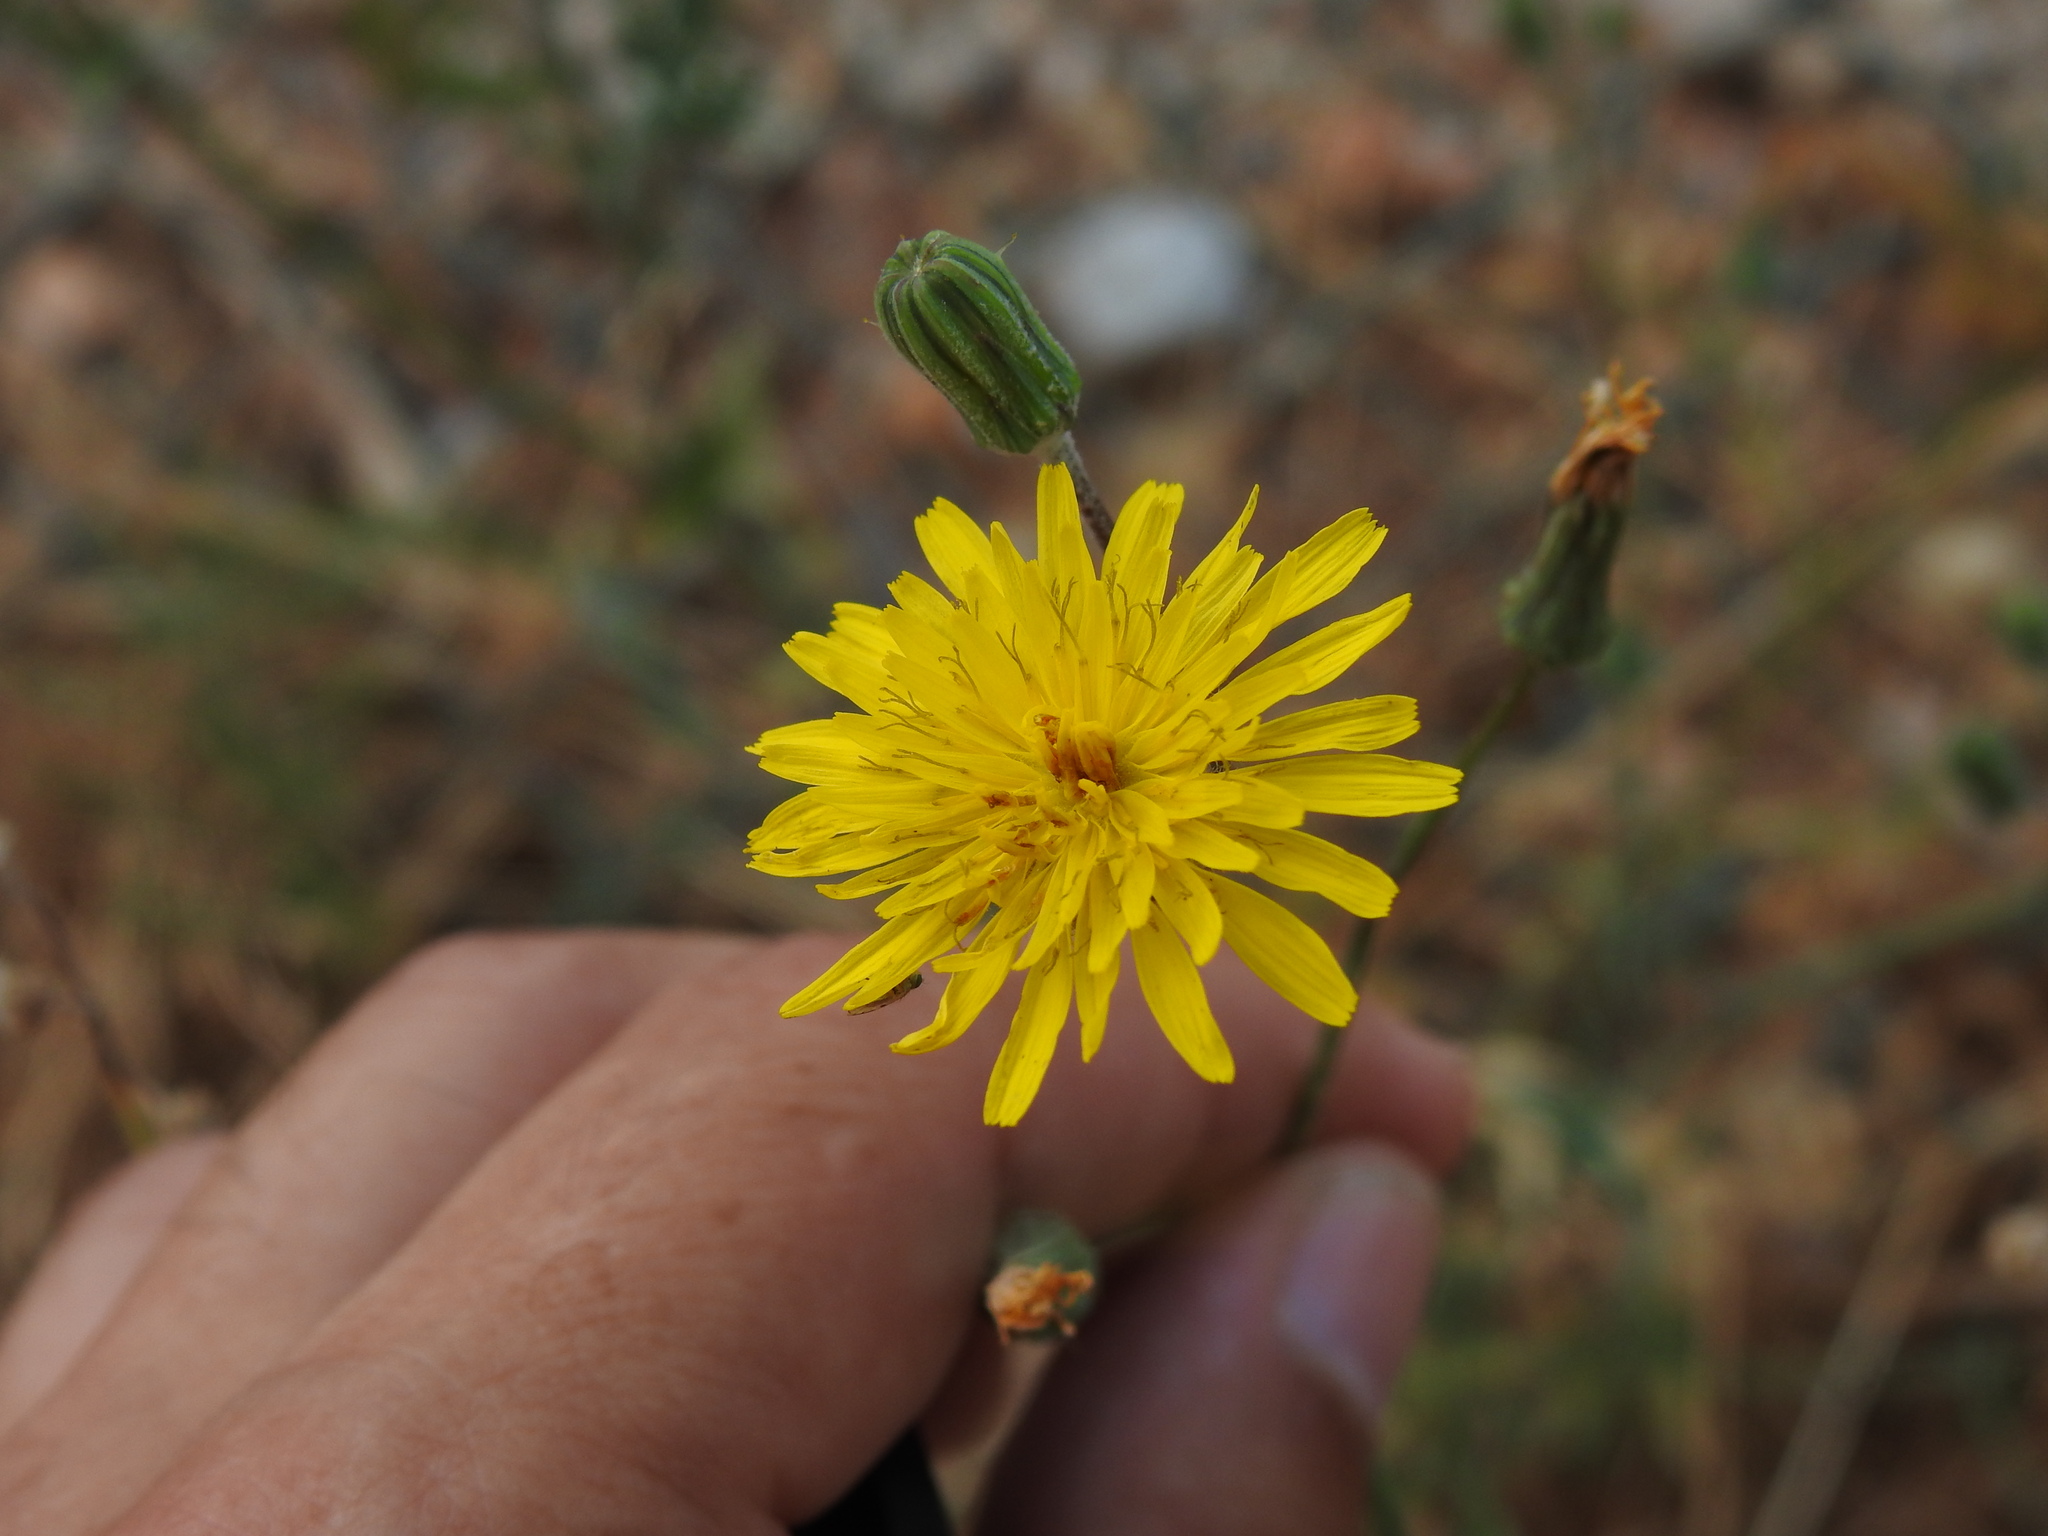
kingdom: Plantae
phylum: Tracheophyta
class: Magnoliopsida
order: Asterales
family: Asteraceae
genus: Sonchus
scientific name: Sonchus tenerrimus
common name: Clammy sowthistle
